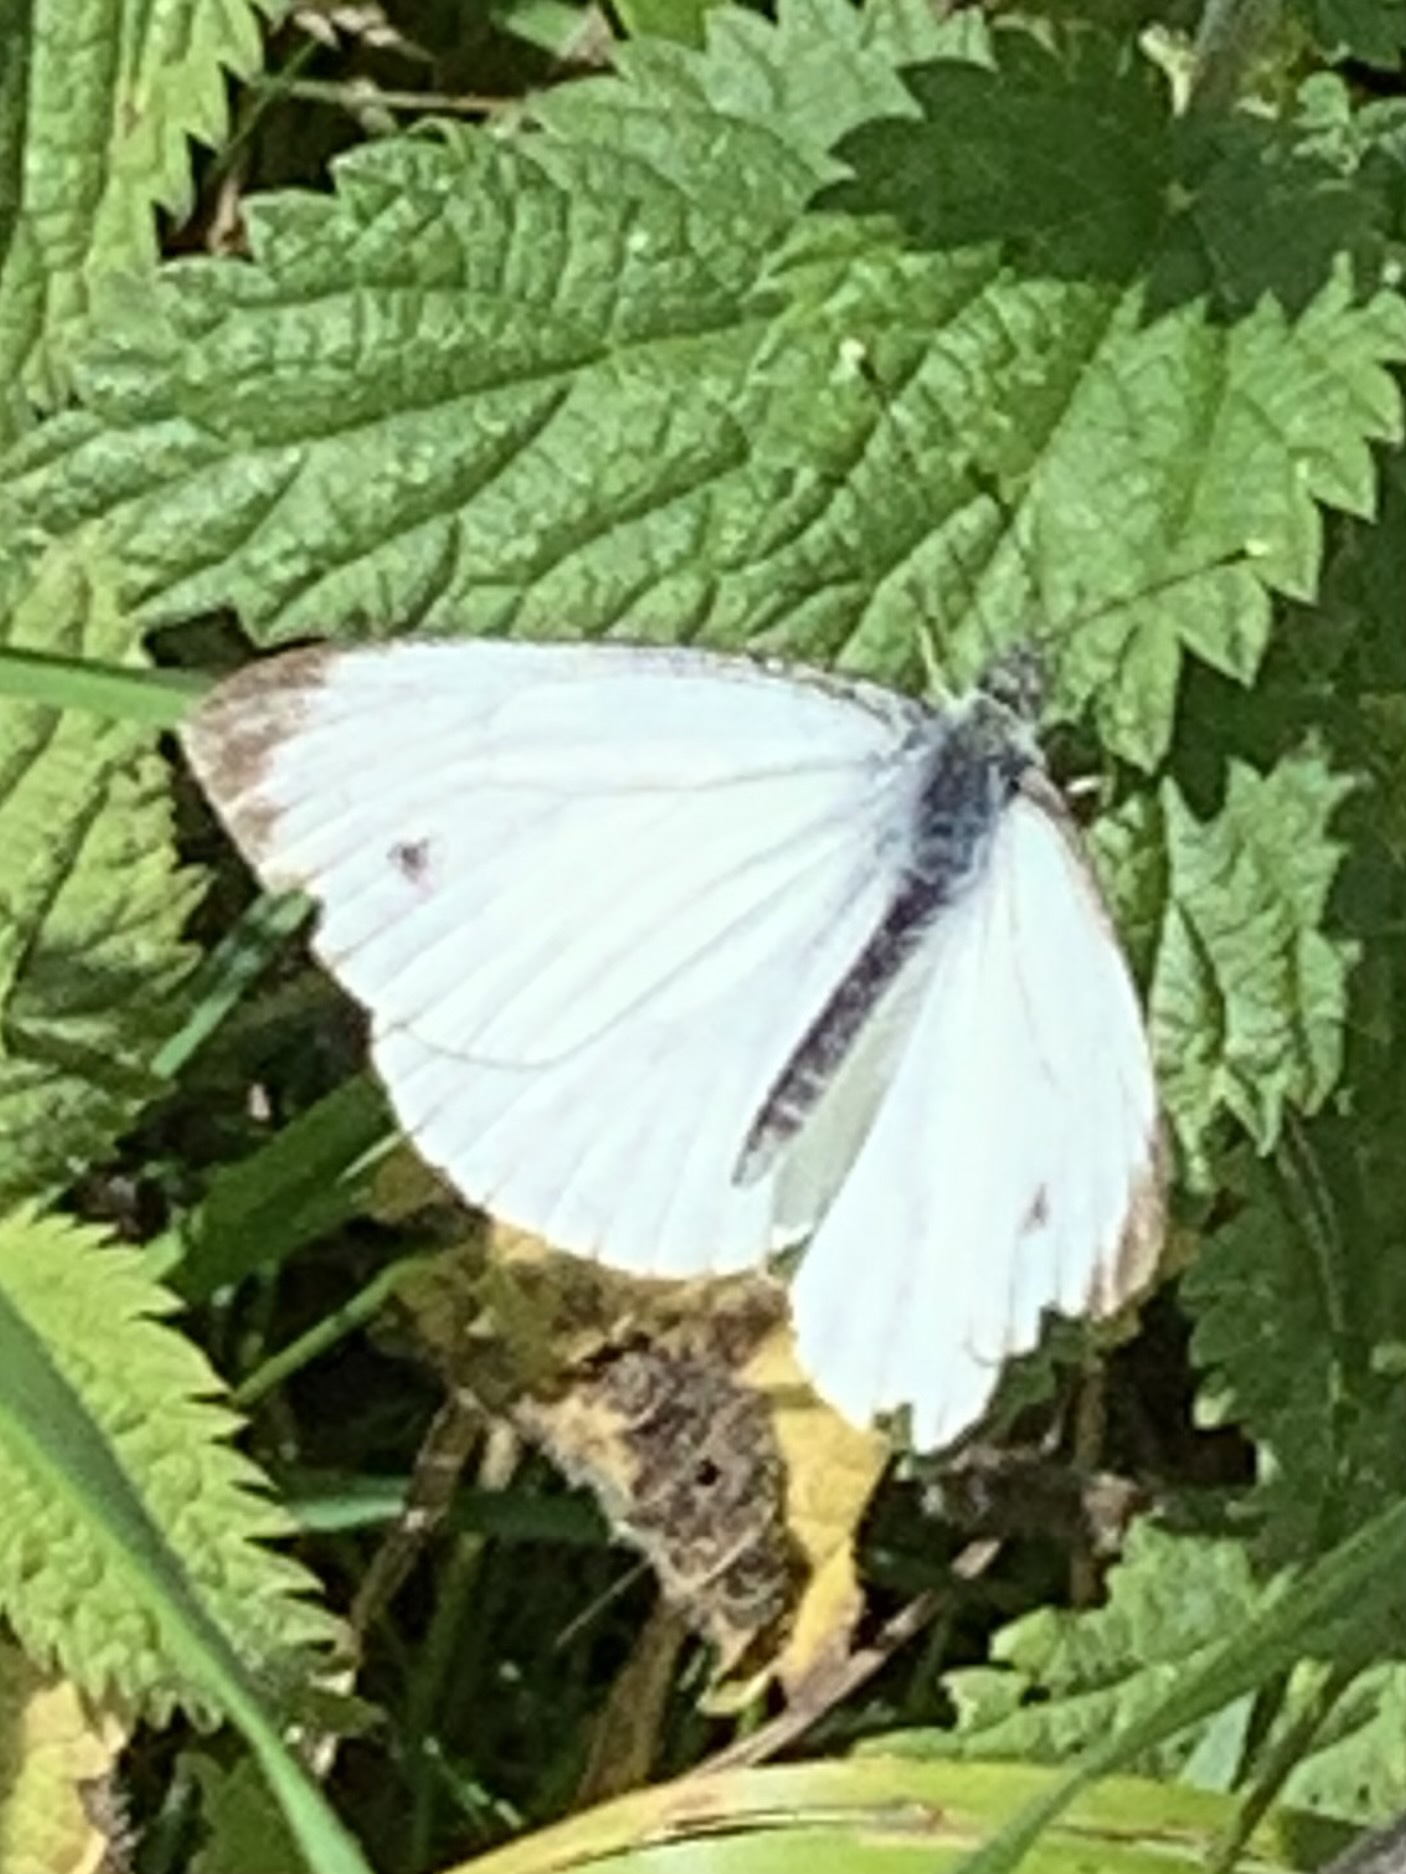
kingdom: Animalia
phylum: Arthropoda
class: Insecta
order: Lepidoptera
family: Pieridae
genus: Pieris
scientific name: Pieris napi
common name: Green-veined white
